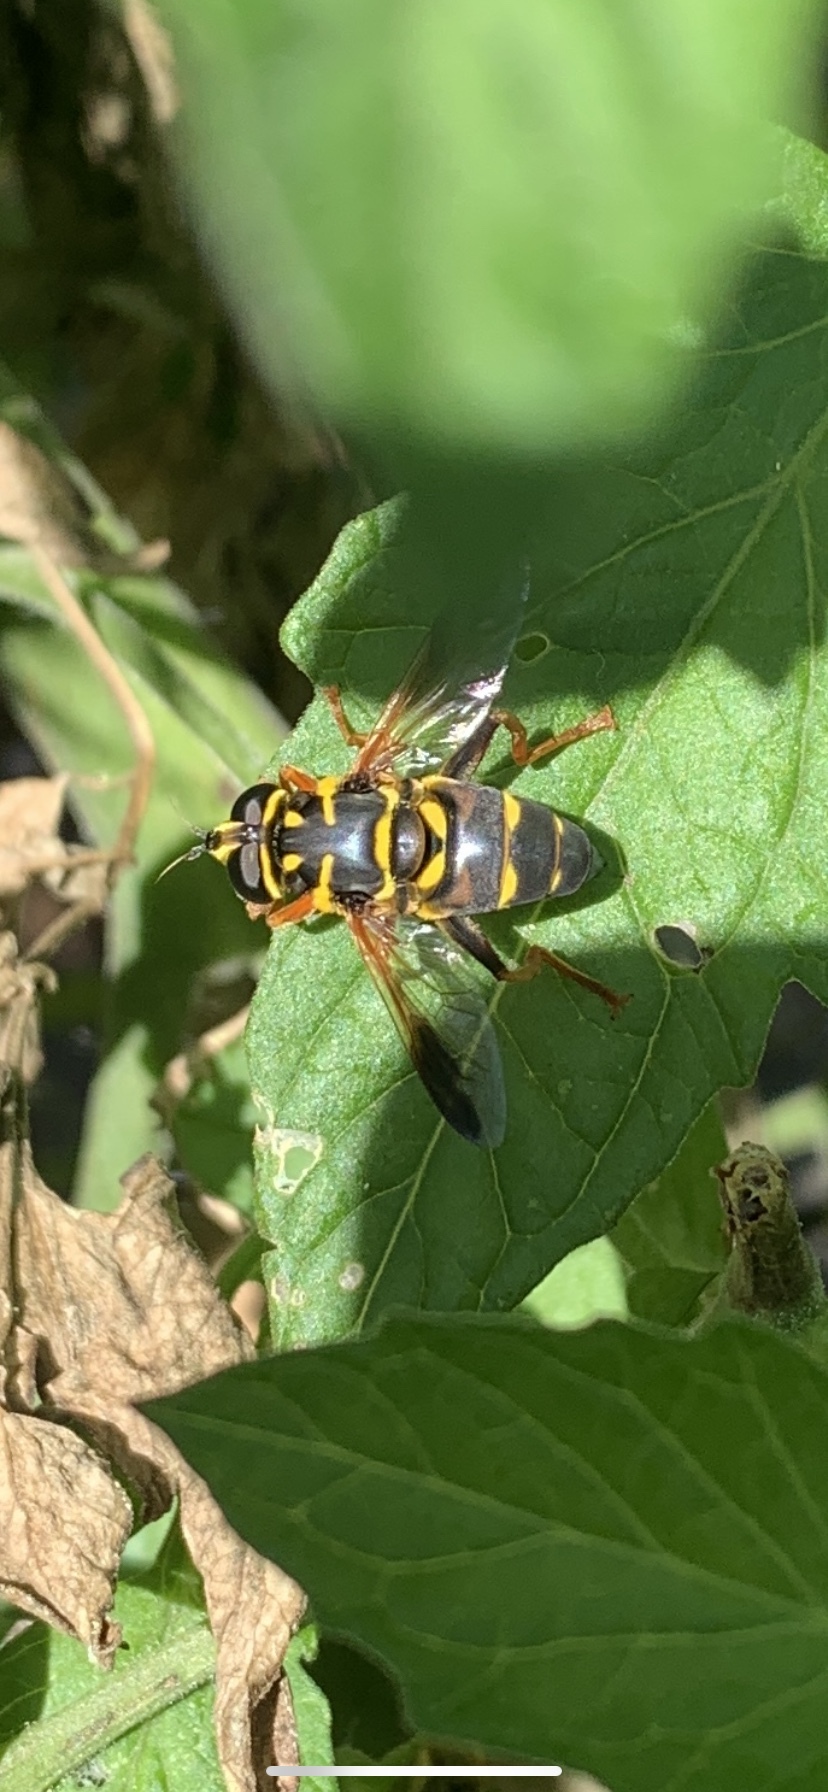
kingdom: Animalia
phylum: Arthropoda
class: Insecta
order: Diptera
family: Syrphidae
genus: Meromacrus
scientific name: Meromacrus acutus
